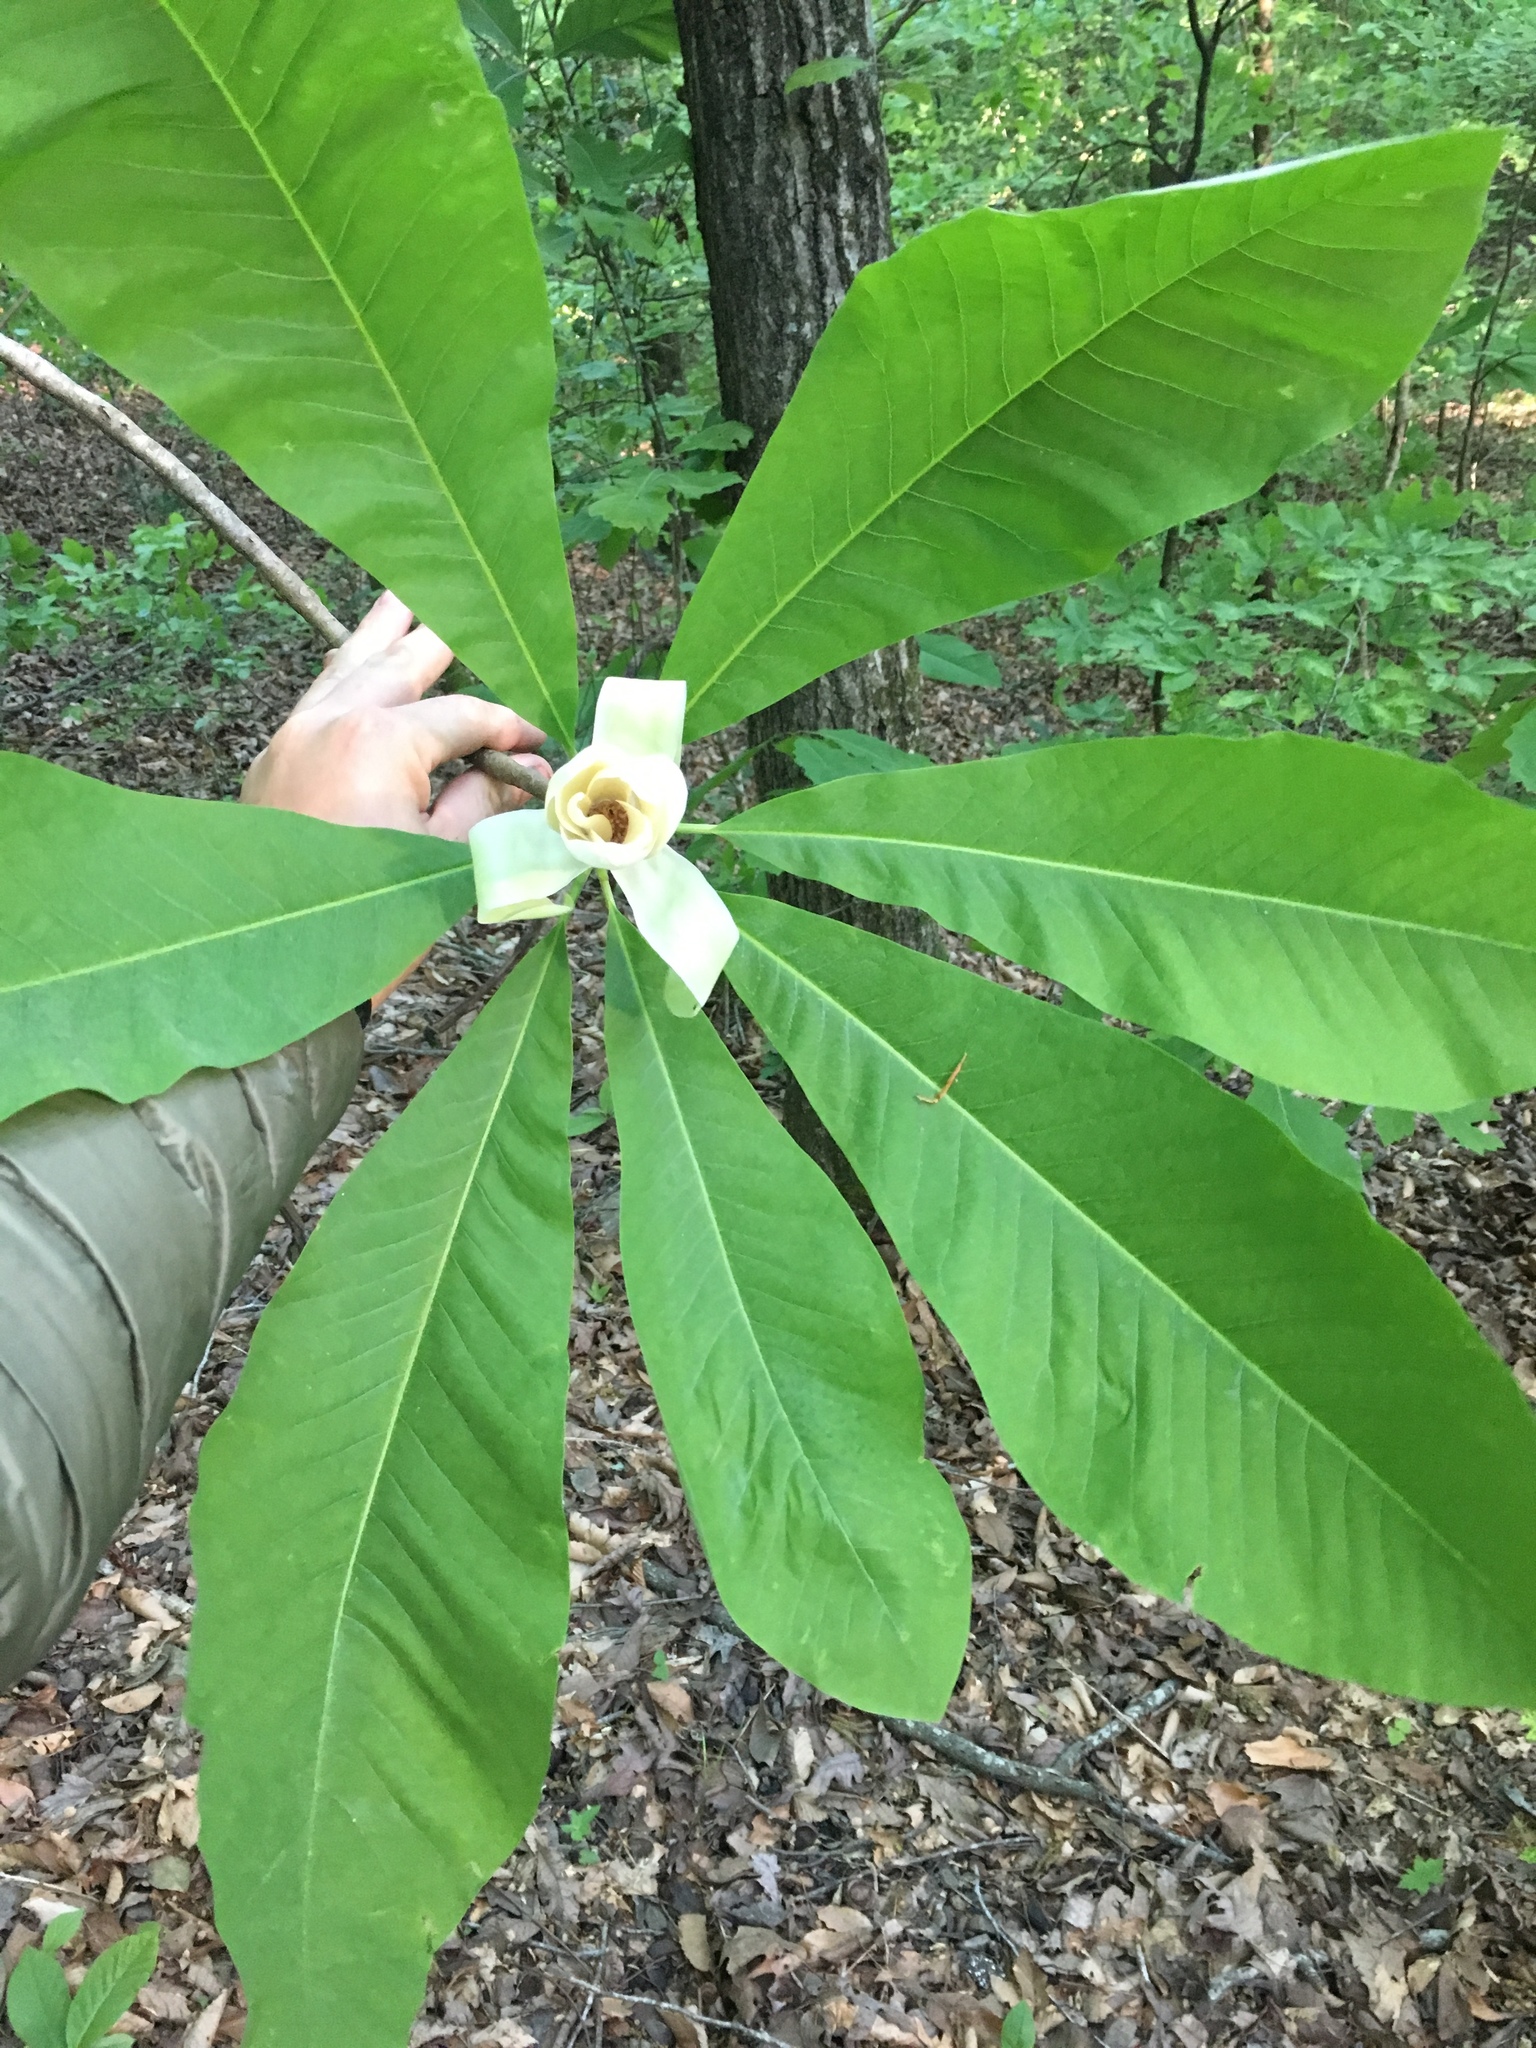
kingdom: Plantae
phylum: Tracheophyta
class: Magnoliopsida
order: Magnoliales
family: Magnoliaceae
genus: Magnolia
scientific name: Magnolia tripetala
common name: Umbrella magnolia
